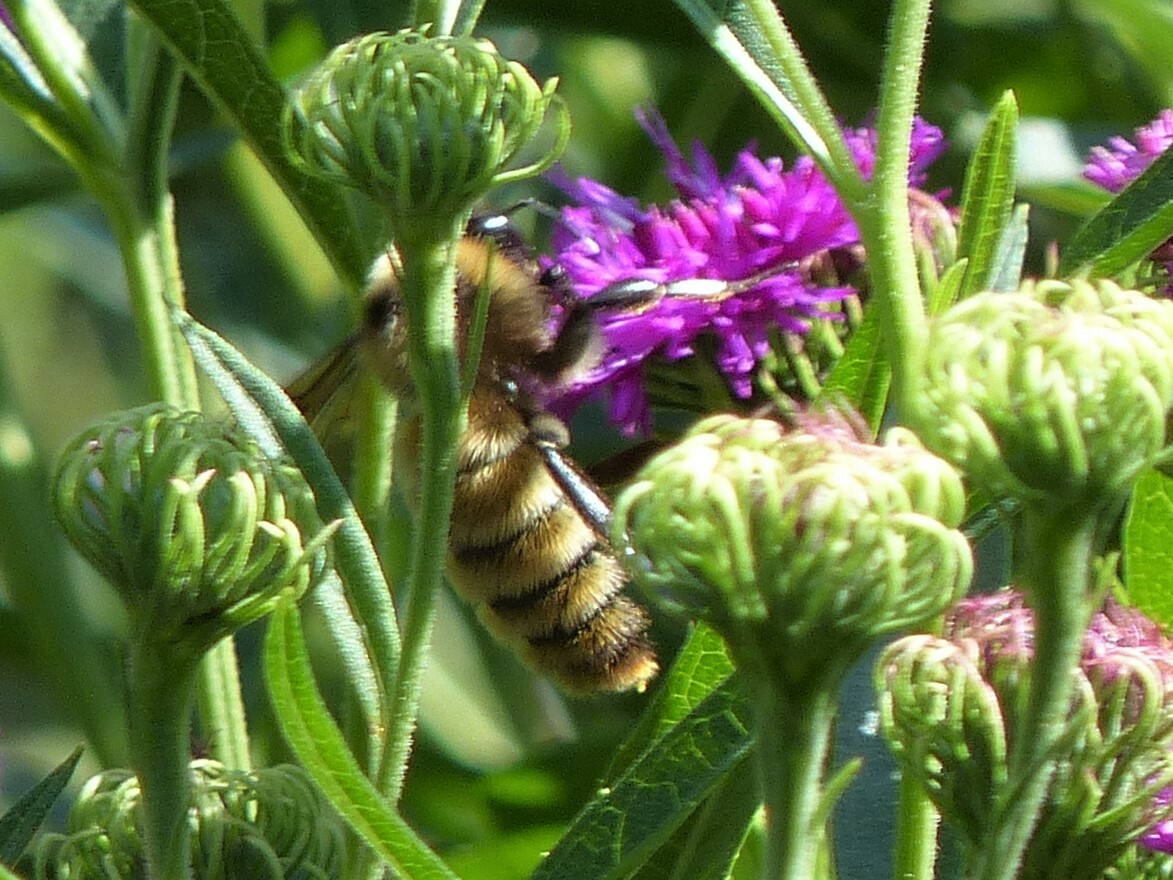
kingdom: Animalia
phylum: Arthropoda
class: Insecta
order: Hymenoptera
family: Apidae
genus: Bombus
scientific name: Bombus pensylvanicus
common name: Bumble bee
